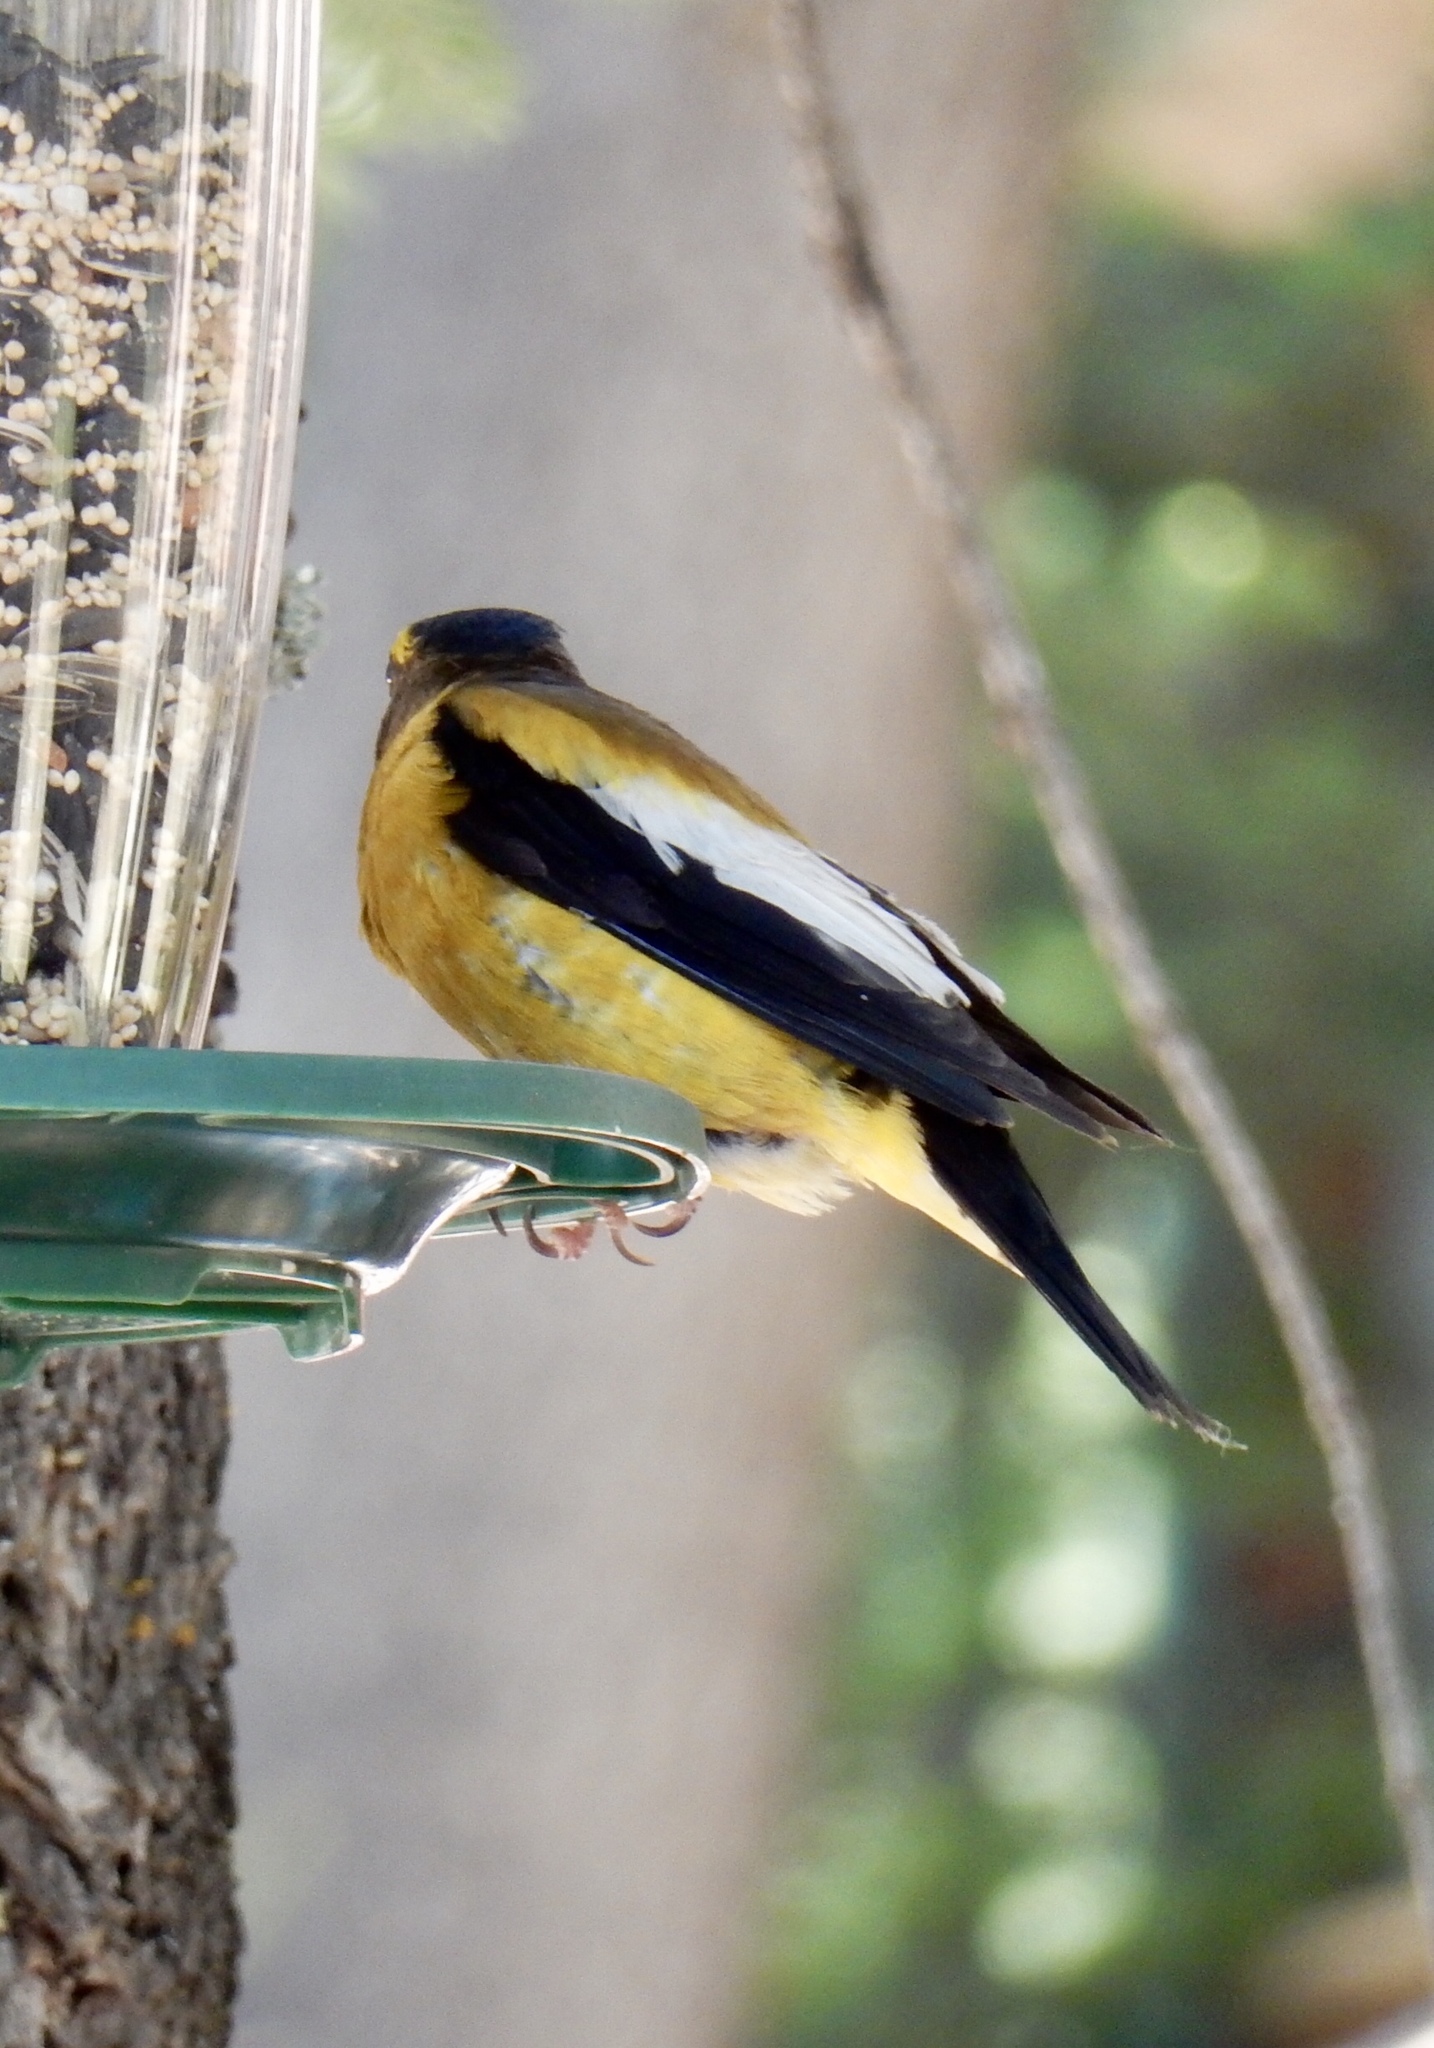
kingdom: Animalia
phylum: Chordata
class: Aves
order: Passeriformes
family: Fringillidae
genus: Hesperiphona
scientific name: Hesperiphona vespertina
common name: Evening grosbeak
